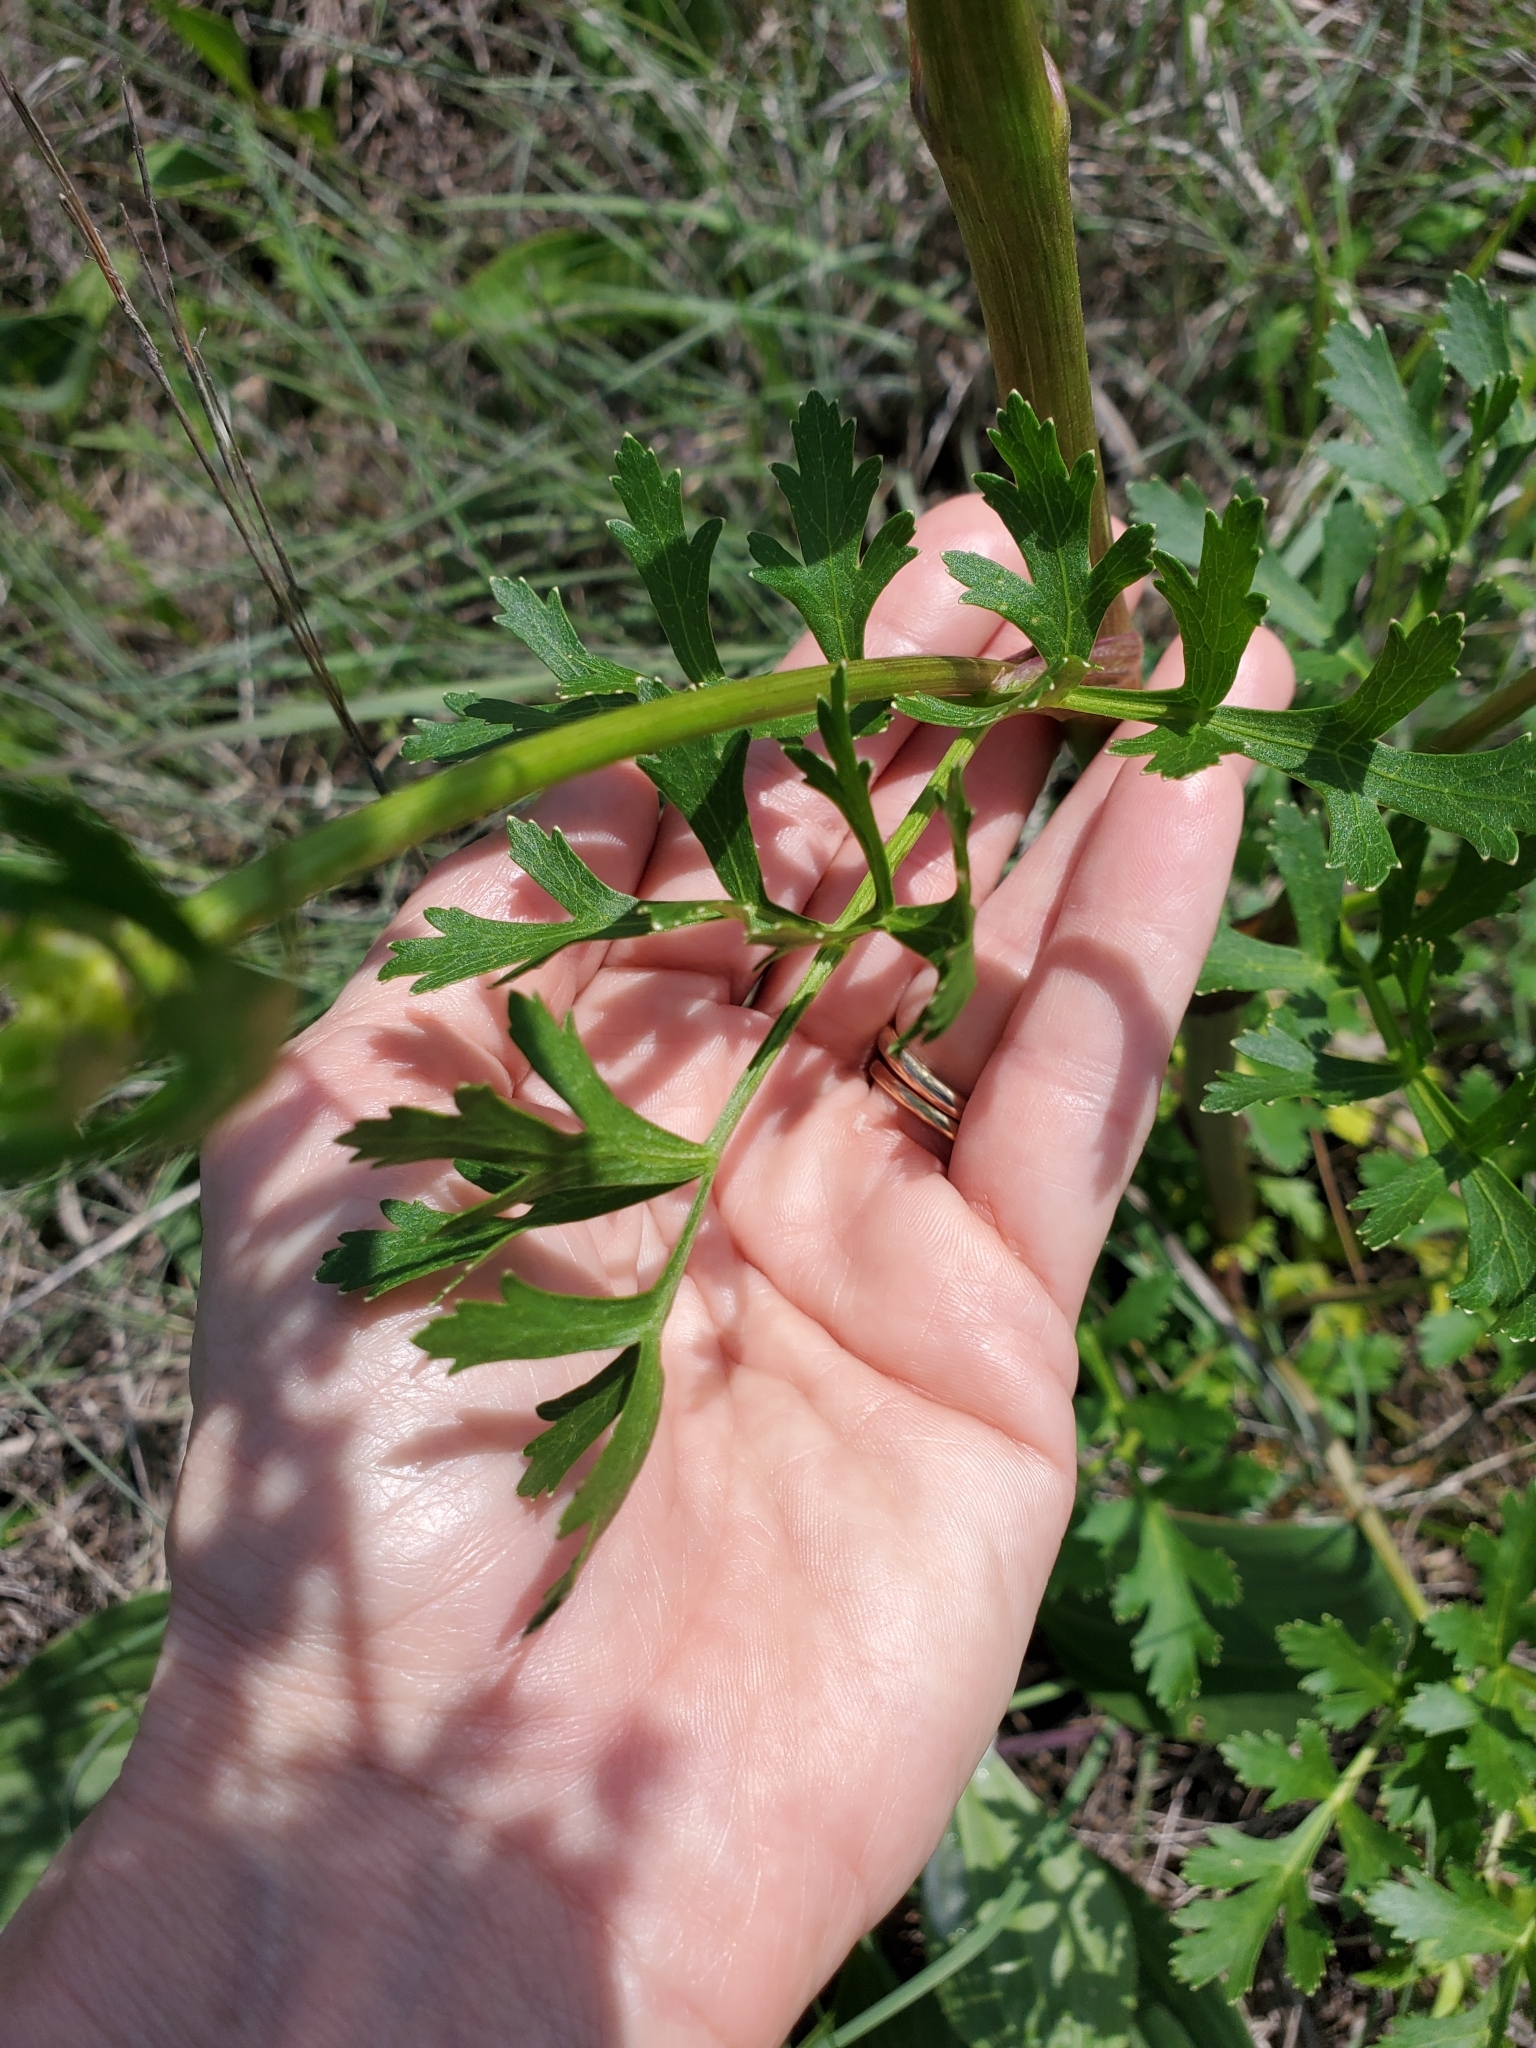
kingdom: Plantae
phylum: Tracheophyta
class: Magnoliopsida
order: Apiales
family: Apiaceae
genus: Polytaenia
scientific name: Polytaenia texana
